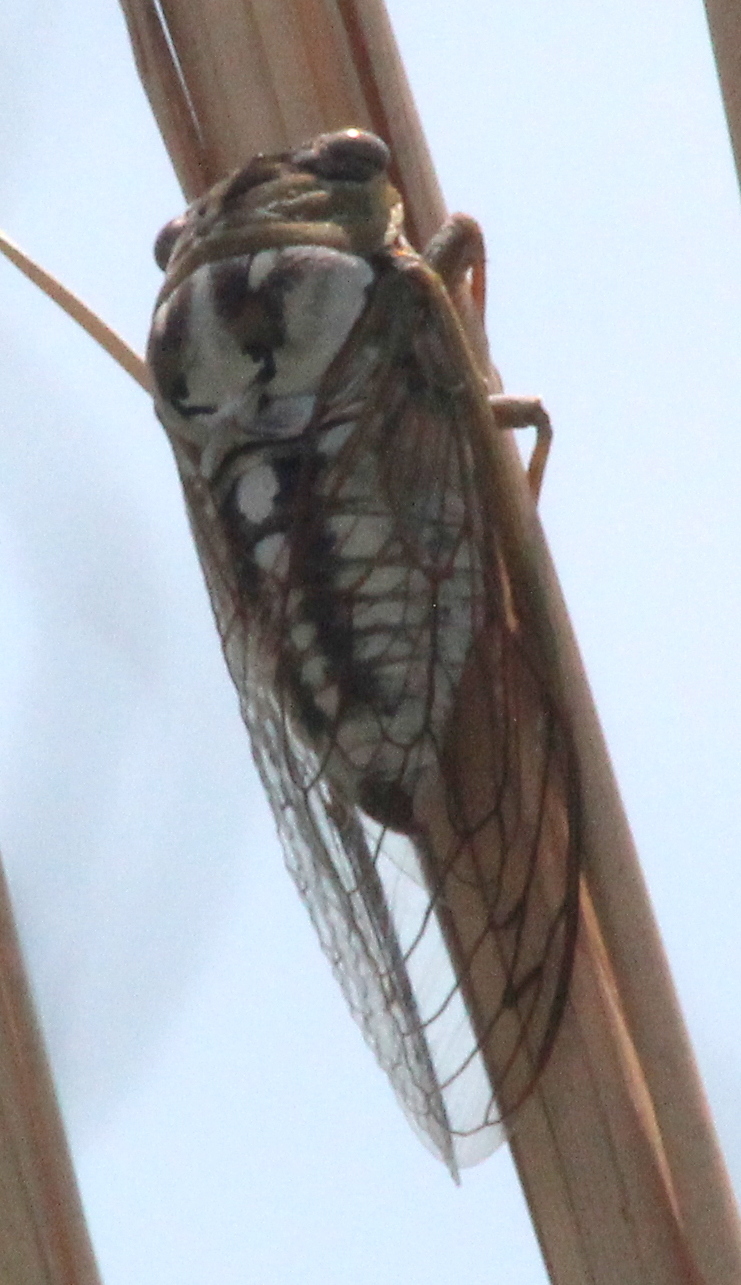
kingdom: Animalia
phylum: Arthropoda
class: Insecta
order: Hemiptera
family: Cicadidae
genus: Megatibicen
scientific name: Megatibicen dealbatus
